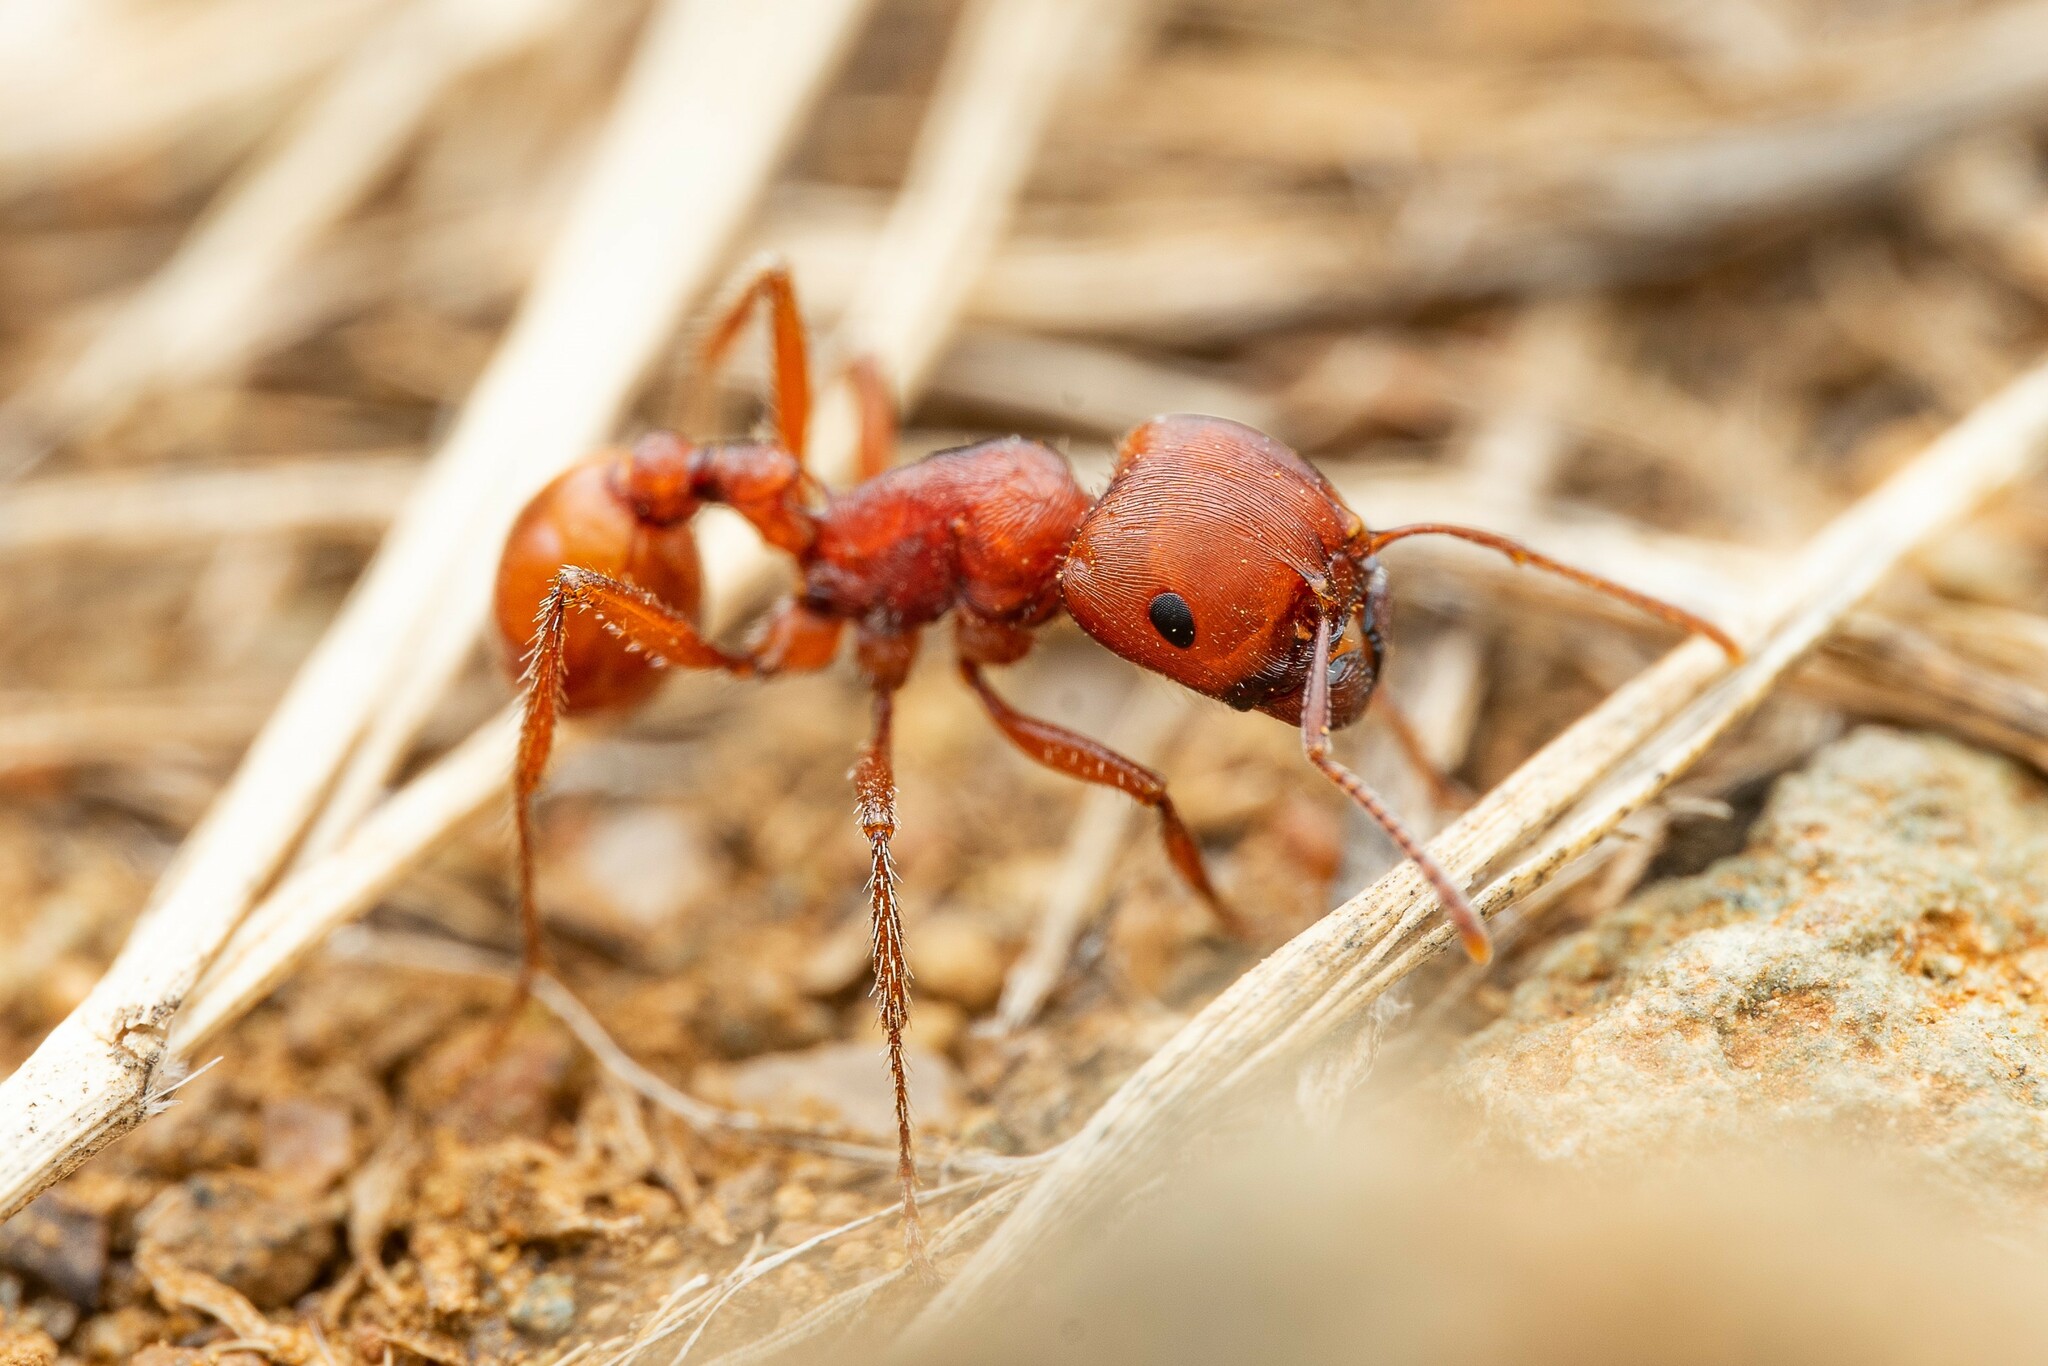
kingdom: Animalia
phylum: Arthropoda
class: Insecta
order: Hymenoptera
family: Formicidae
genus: Pogonomyrmex
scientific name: Pogonomyrmex barbatus
